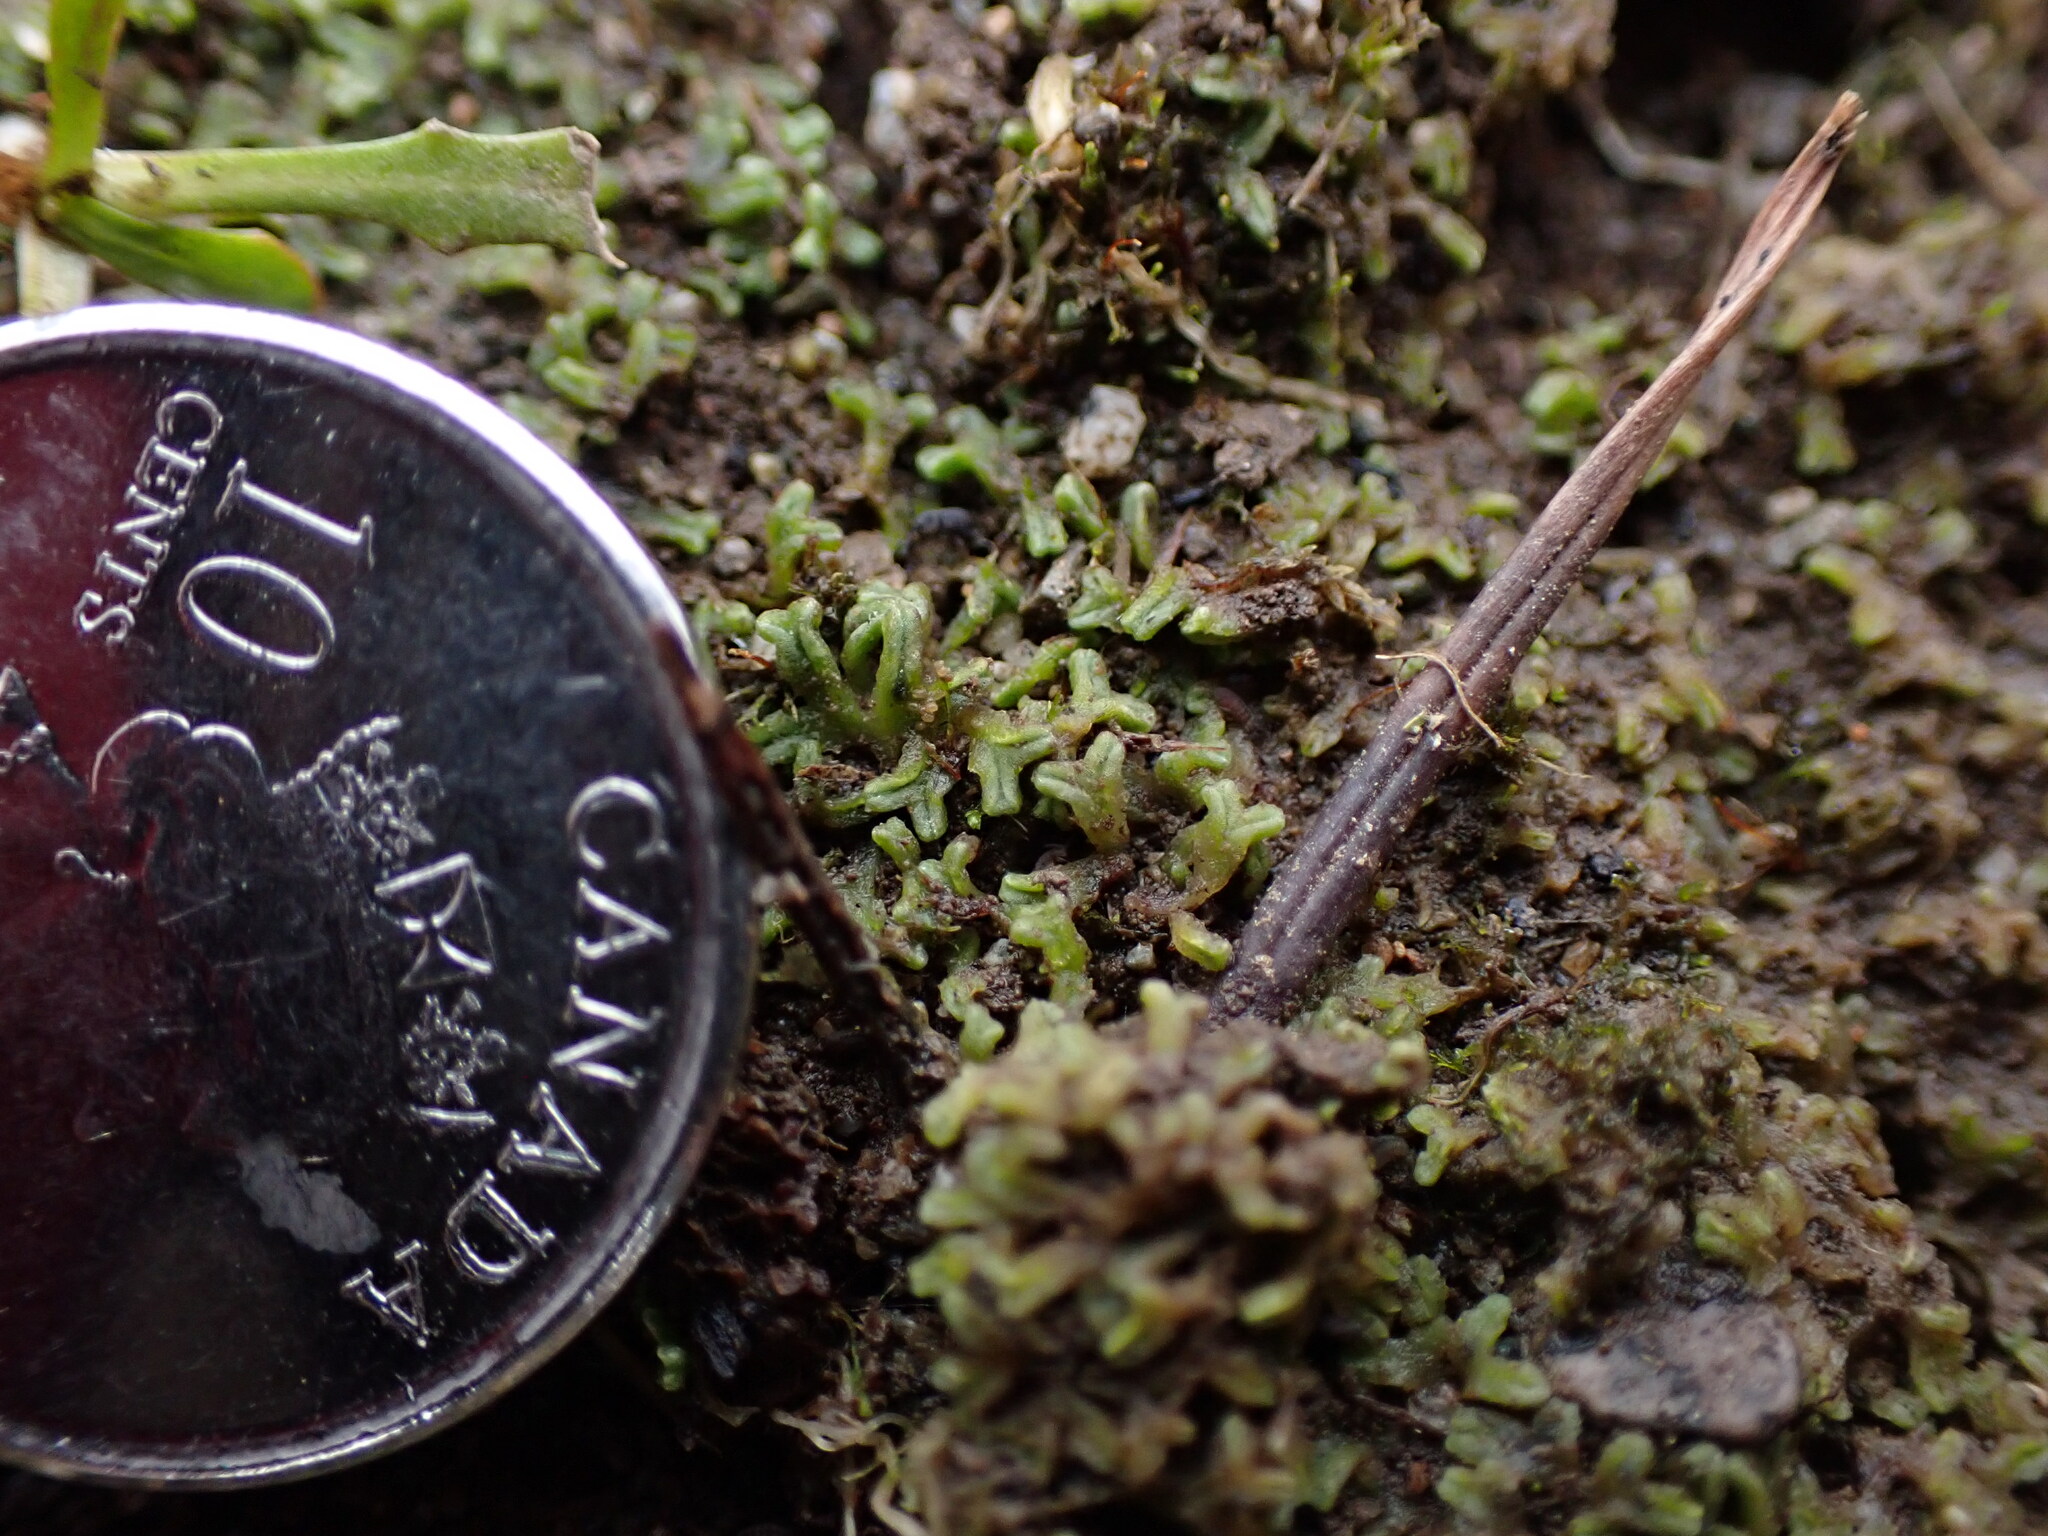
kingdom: Plantae
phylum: Marchantiophyta
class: Marchantiopsida
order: Marchantiales
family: Ricciaceae
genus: Riccia
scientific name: Riccia sorocarpa
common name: Common crystalwort
